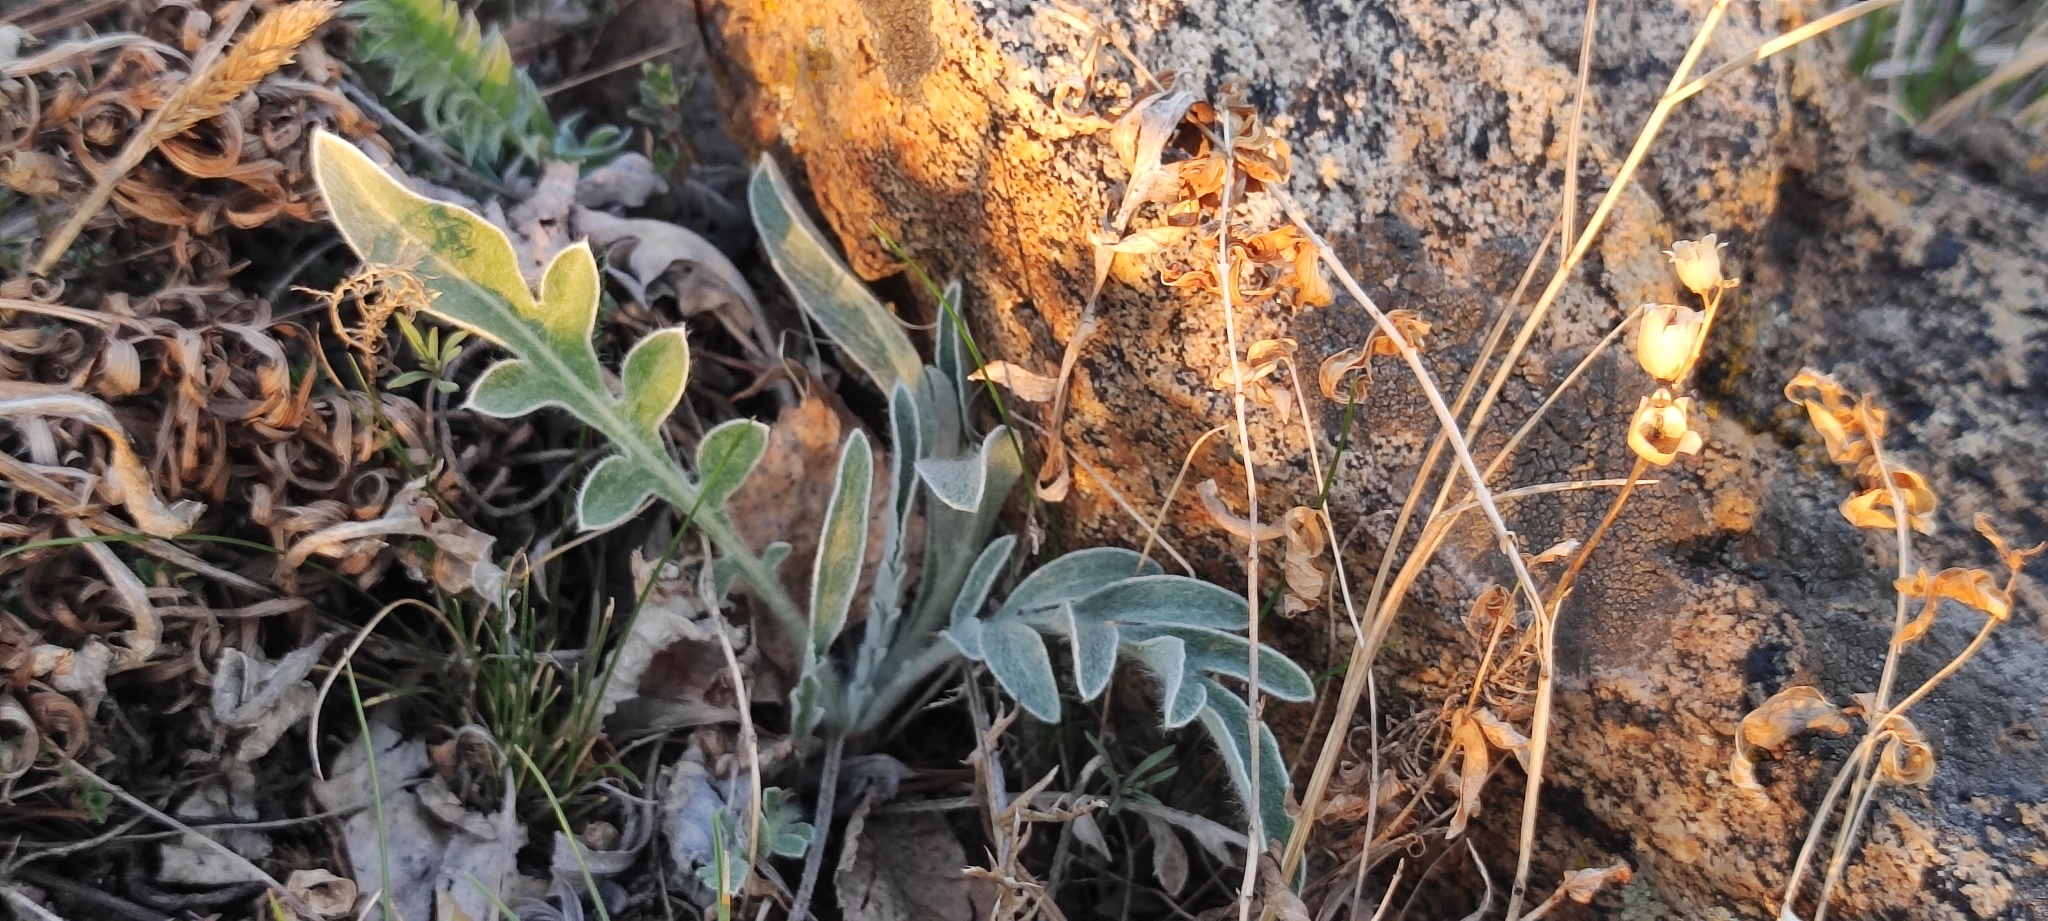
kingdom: Plantae
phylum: Tracheophyta
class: Magnoliopsida
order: Asterales
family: Asteraceae
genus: Psephellus
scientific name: Psephellus sibiricus
